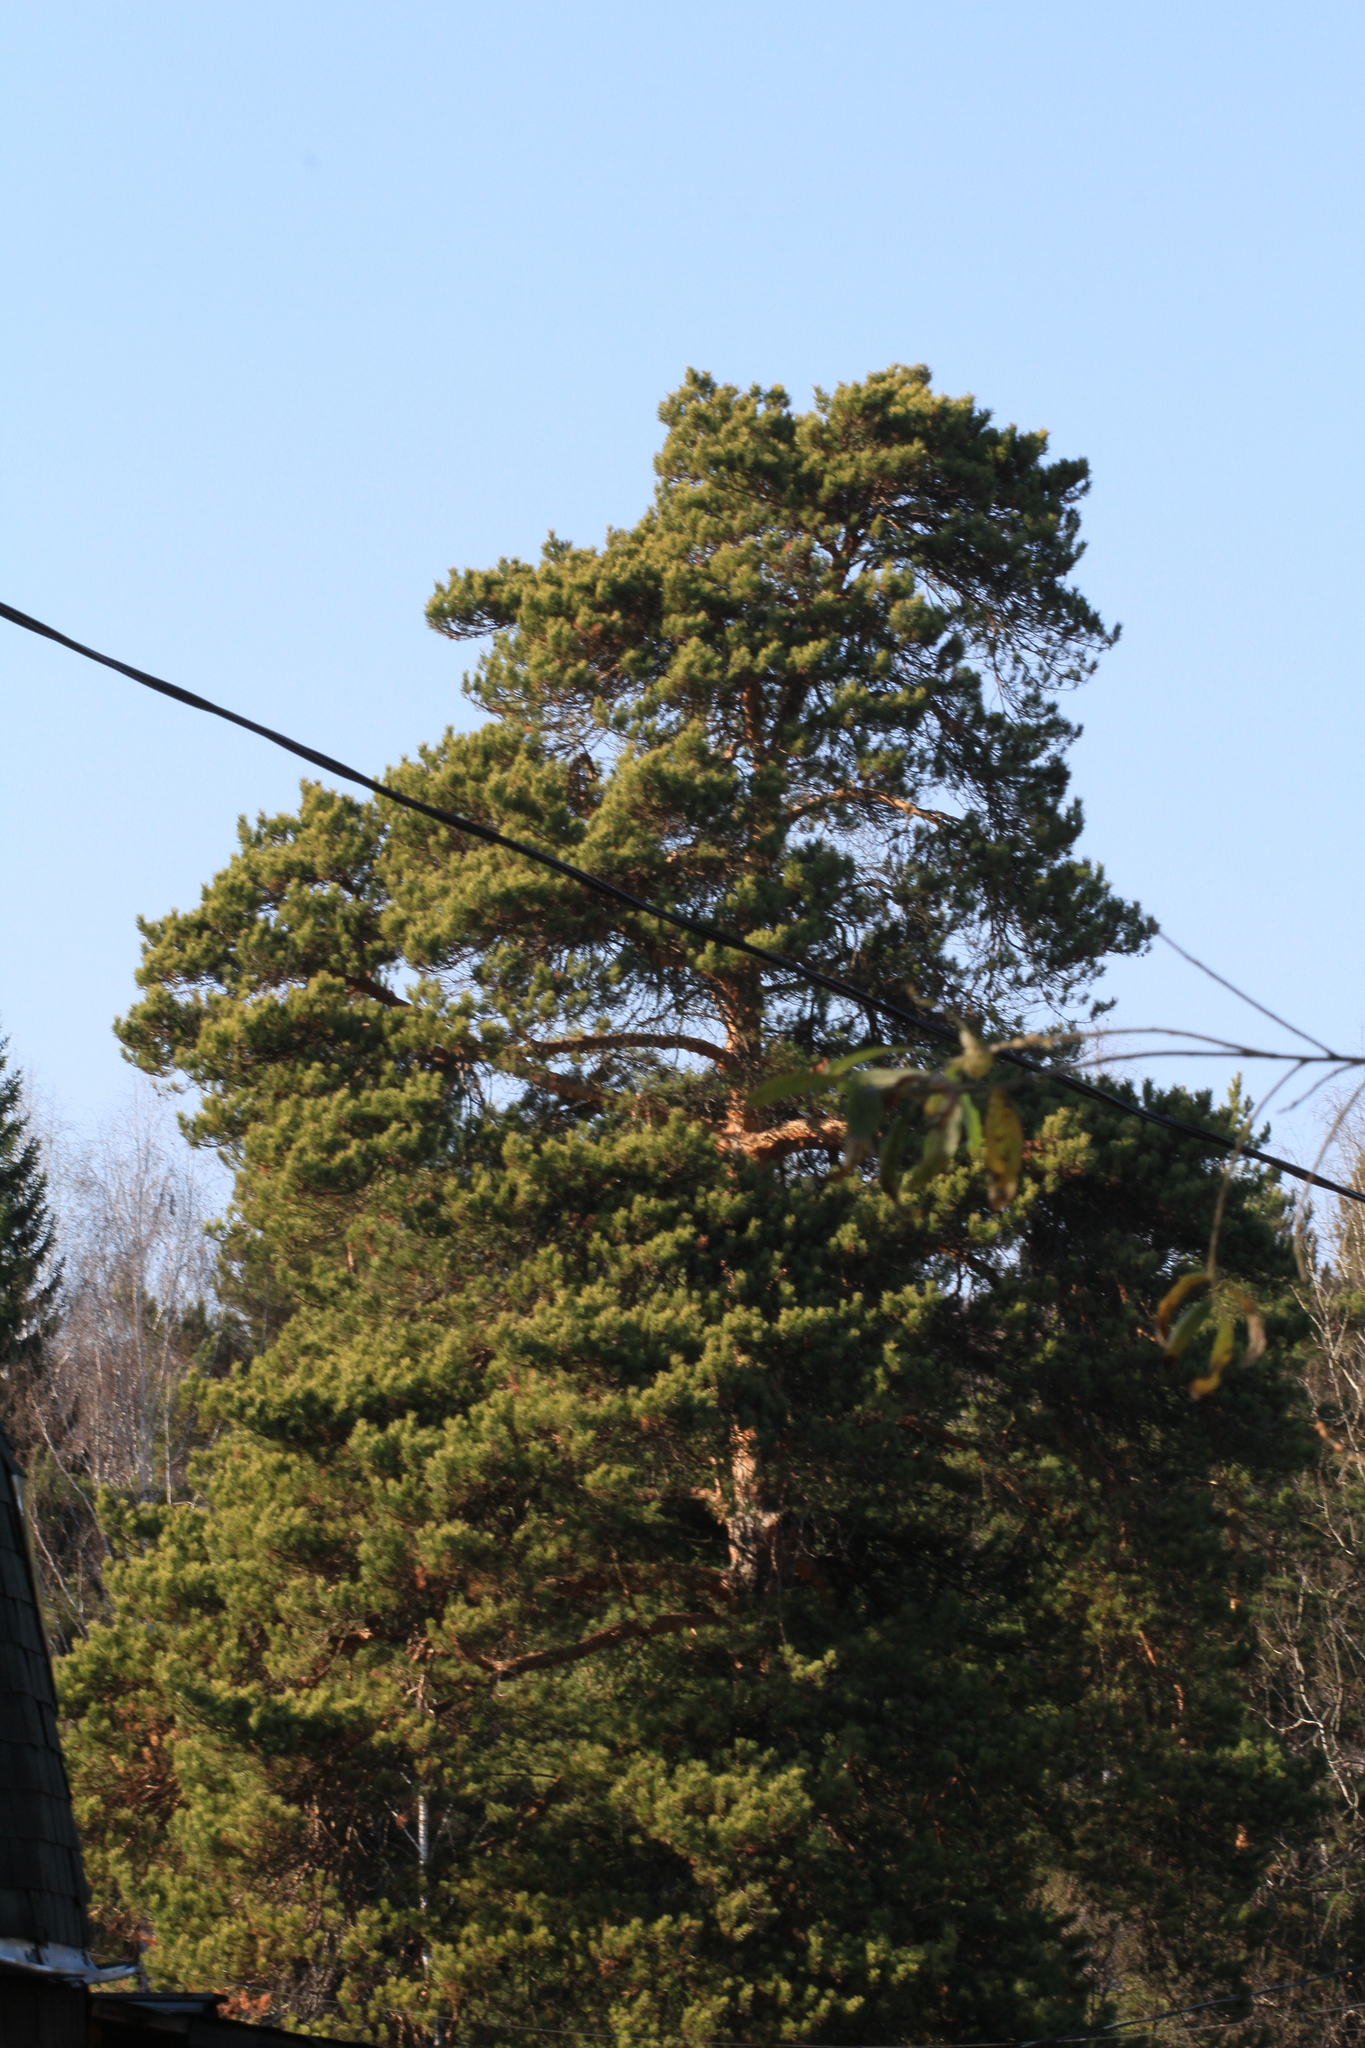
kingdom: Plantae
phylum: Tracheophyta
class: Pinopsida
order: Pinales
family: Pinaceae
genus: Pinus
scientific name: Pinus sylvestris
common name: Scots pine
